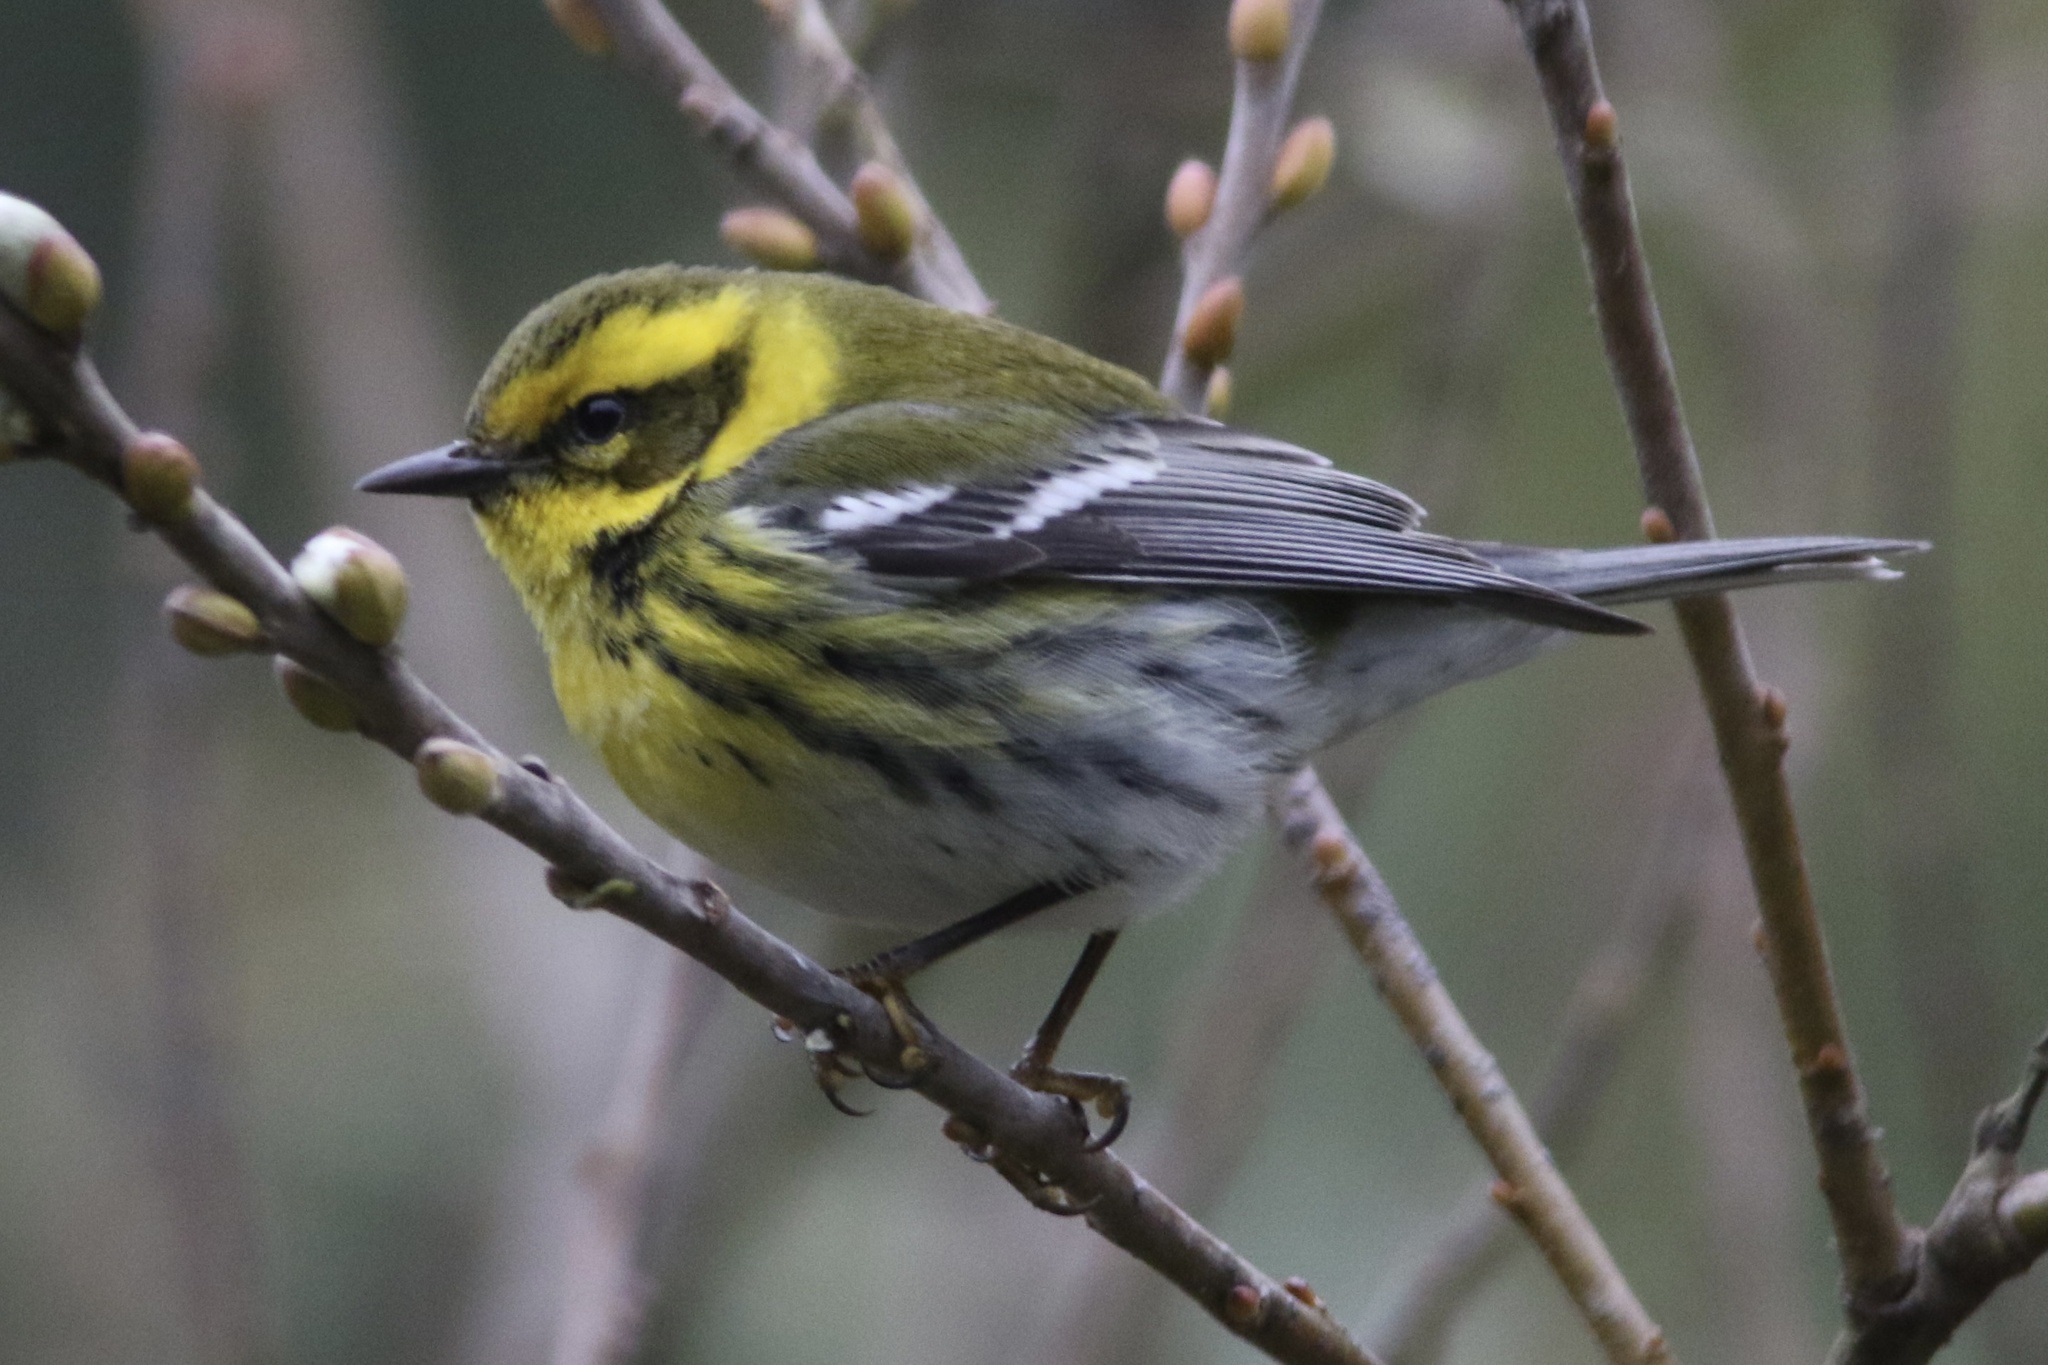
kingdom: Animalia
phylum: Chordata
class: Aves
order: Passeriformes
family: Parulidae
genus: Setophaga
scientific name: Setophaga townsendi
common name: Townsend's warbler
